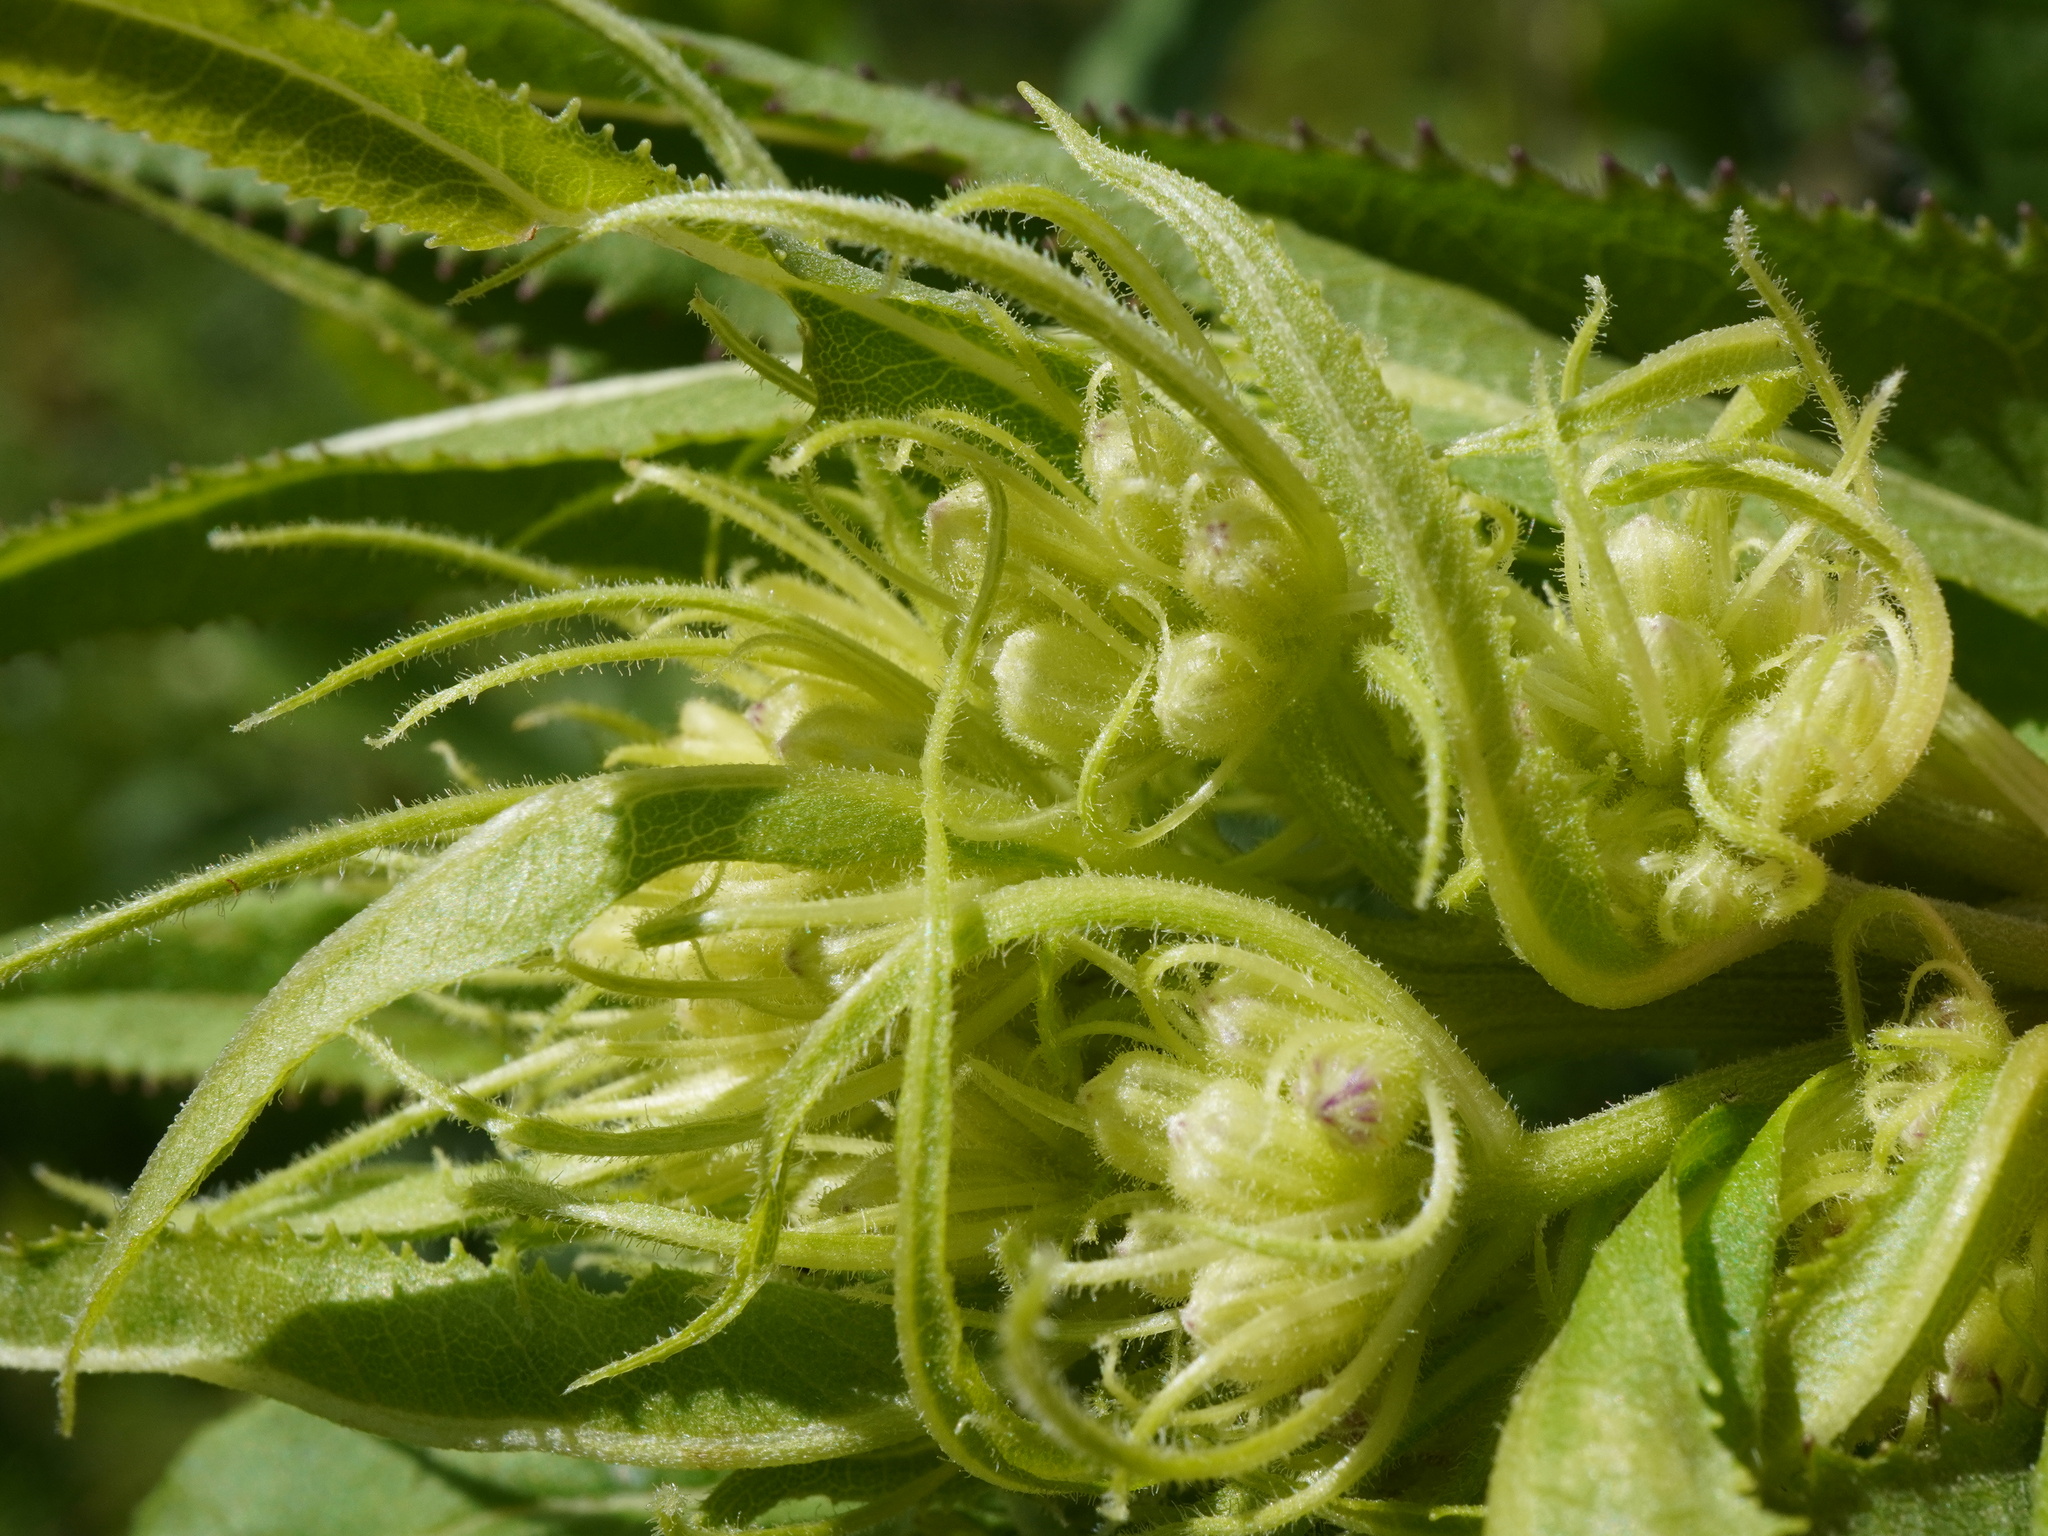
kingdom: Plantae
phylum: Tracheophyta
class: Magnoliopsida
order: Asterales
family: Asteraceae
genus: Senecio
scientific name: Senecio cacaliaster
